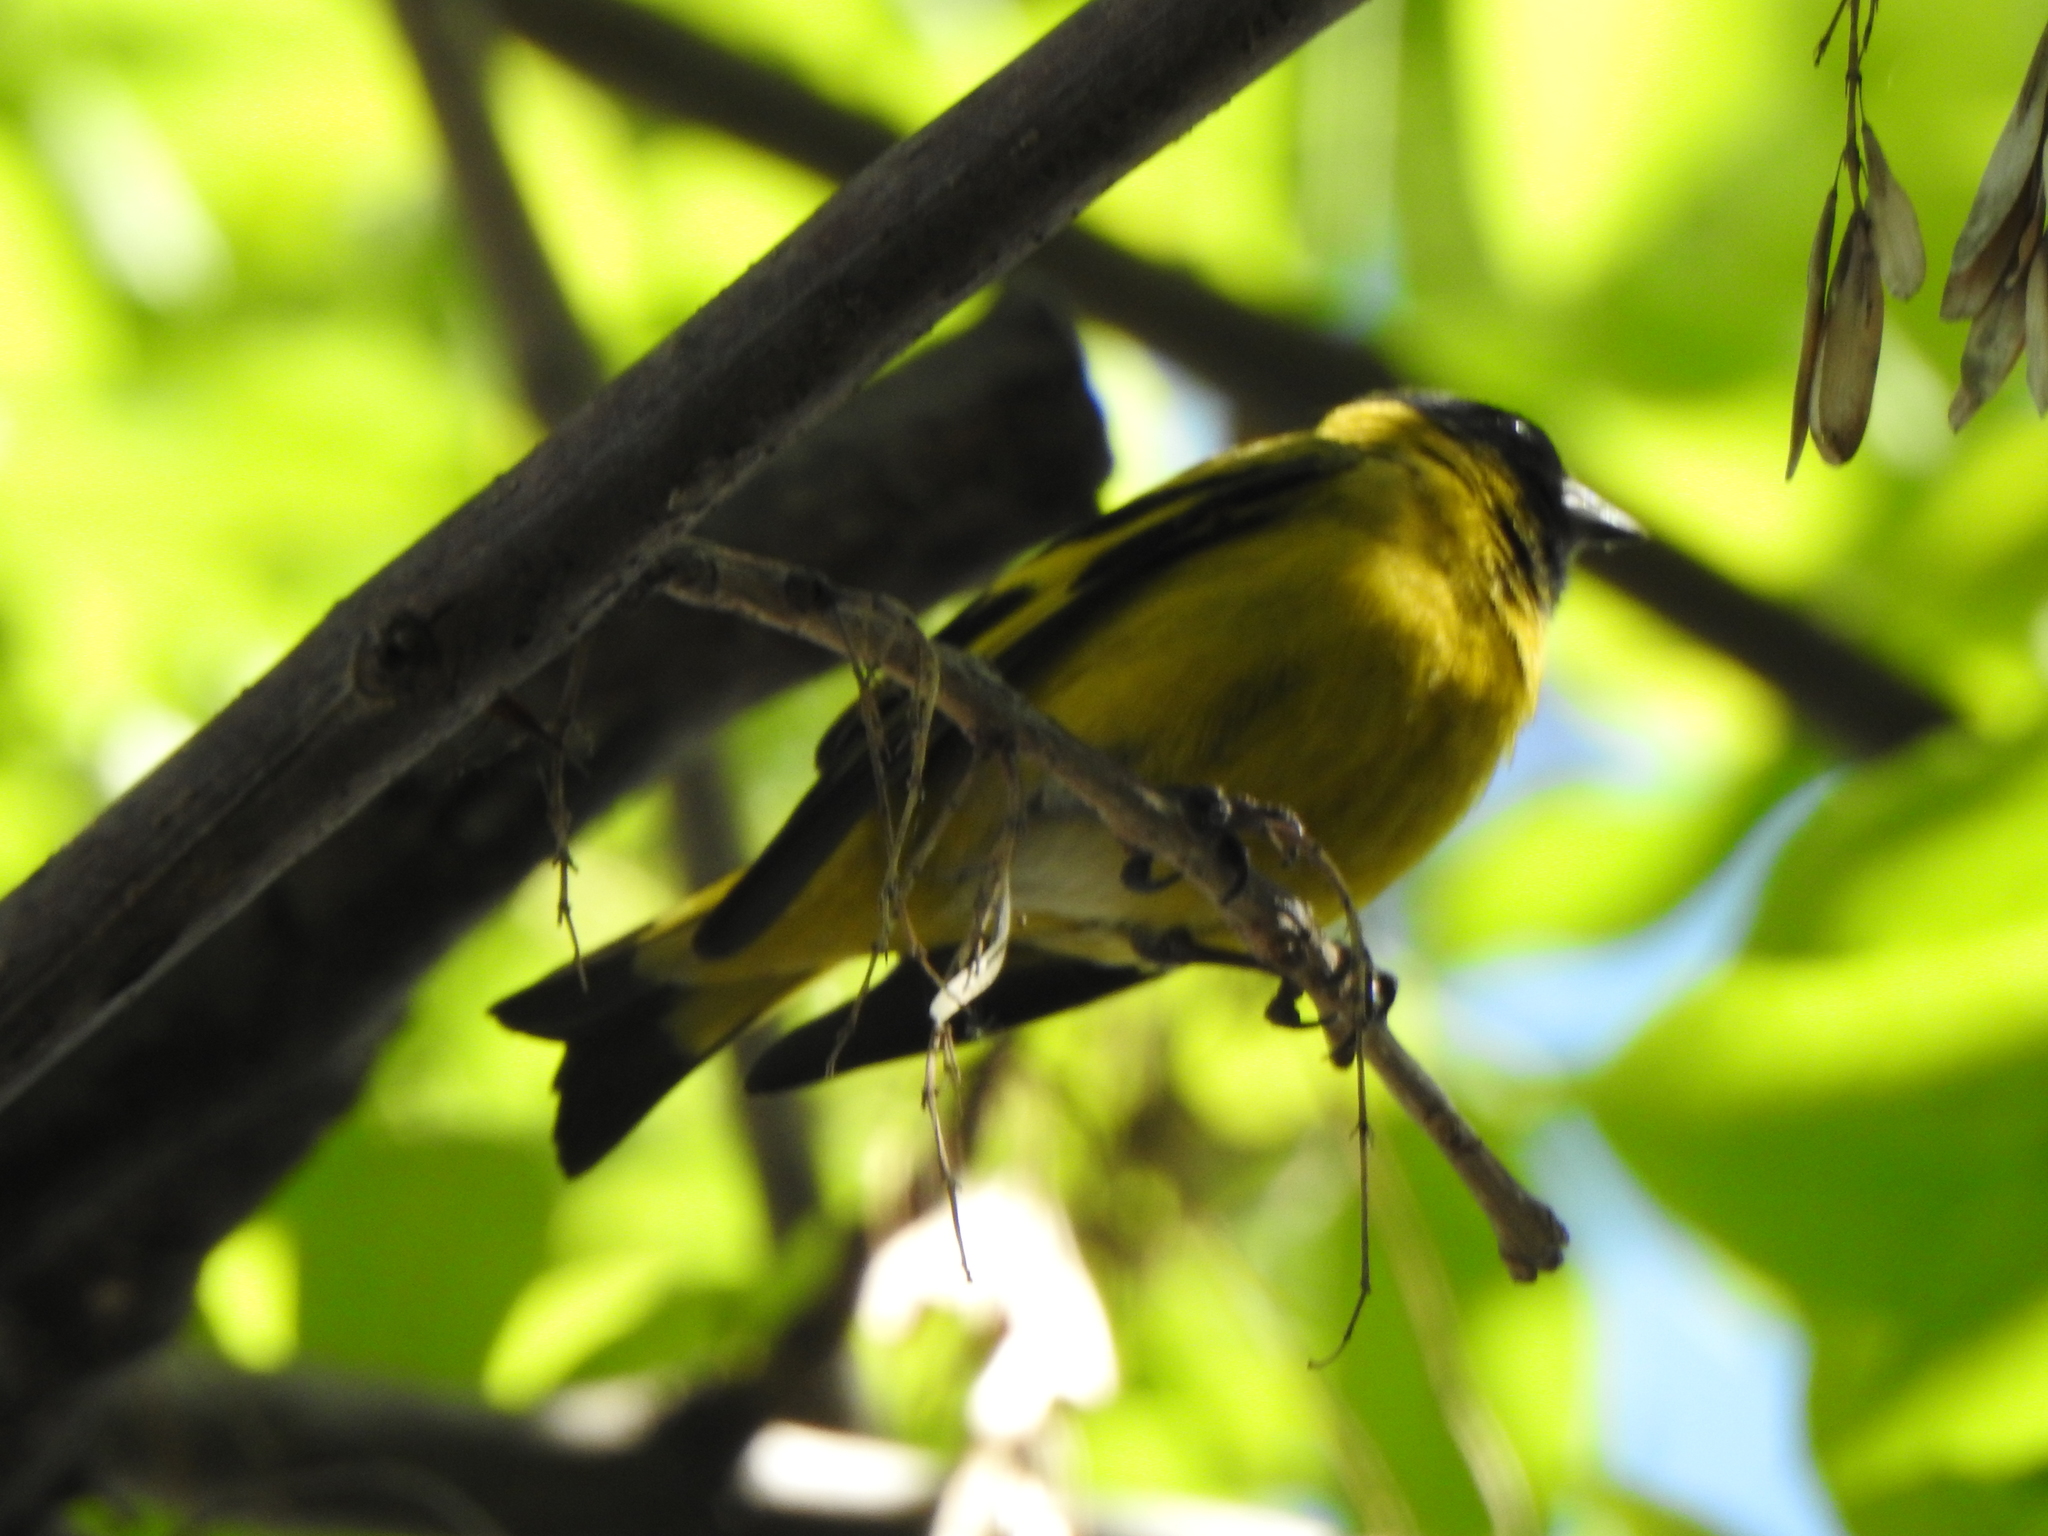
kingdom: Animalia
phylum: Chordata
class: Aves
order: Passeriformes
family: Fringillidae
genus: Spinus
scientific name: Spinus magellanicus
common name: Hooded siskin
